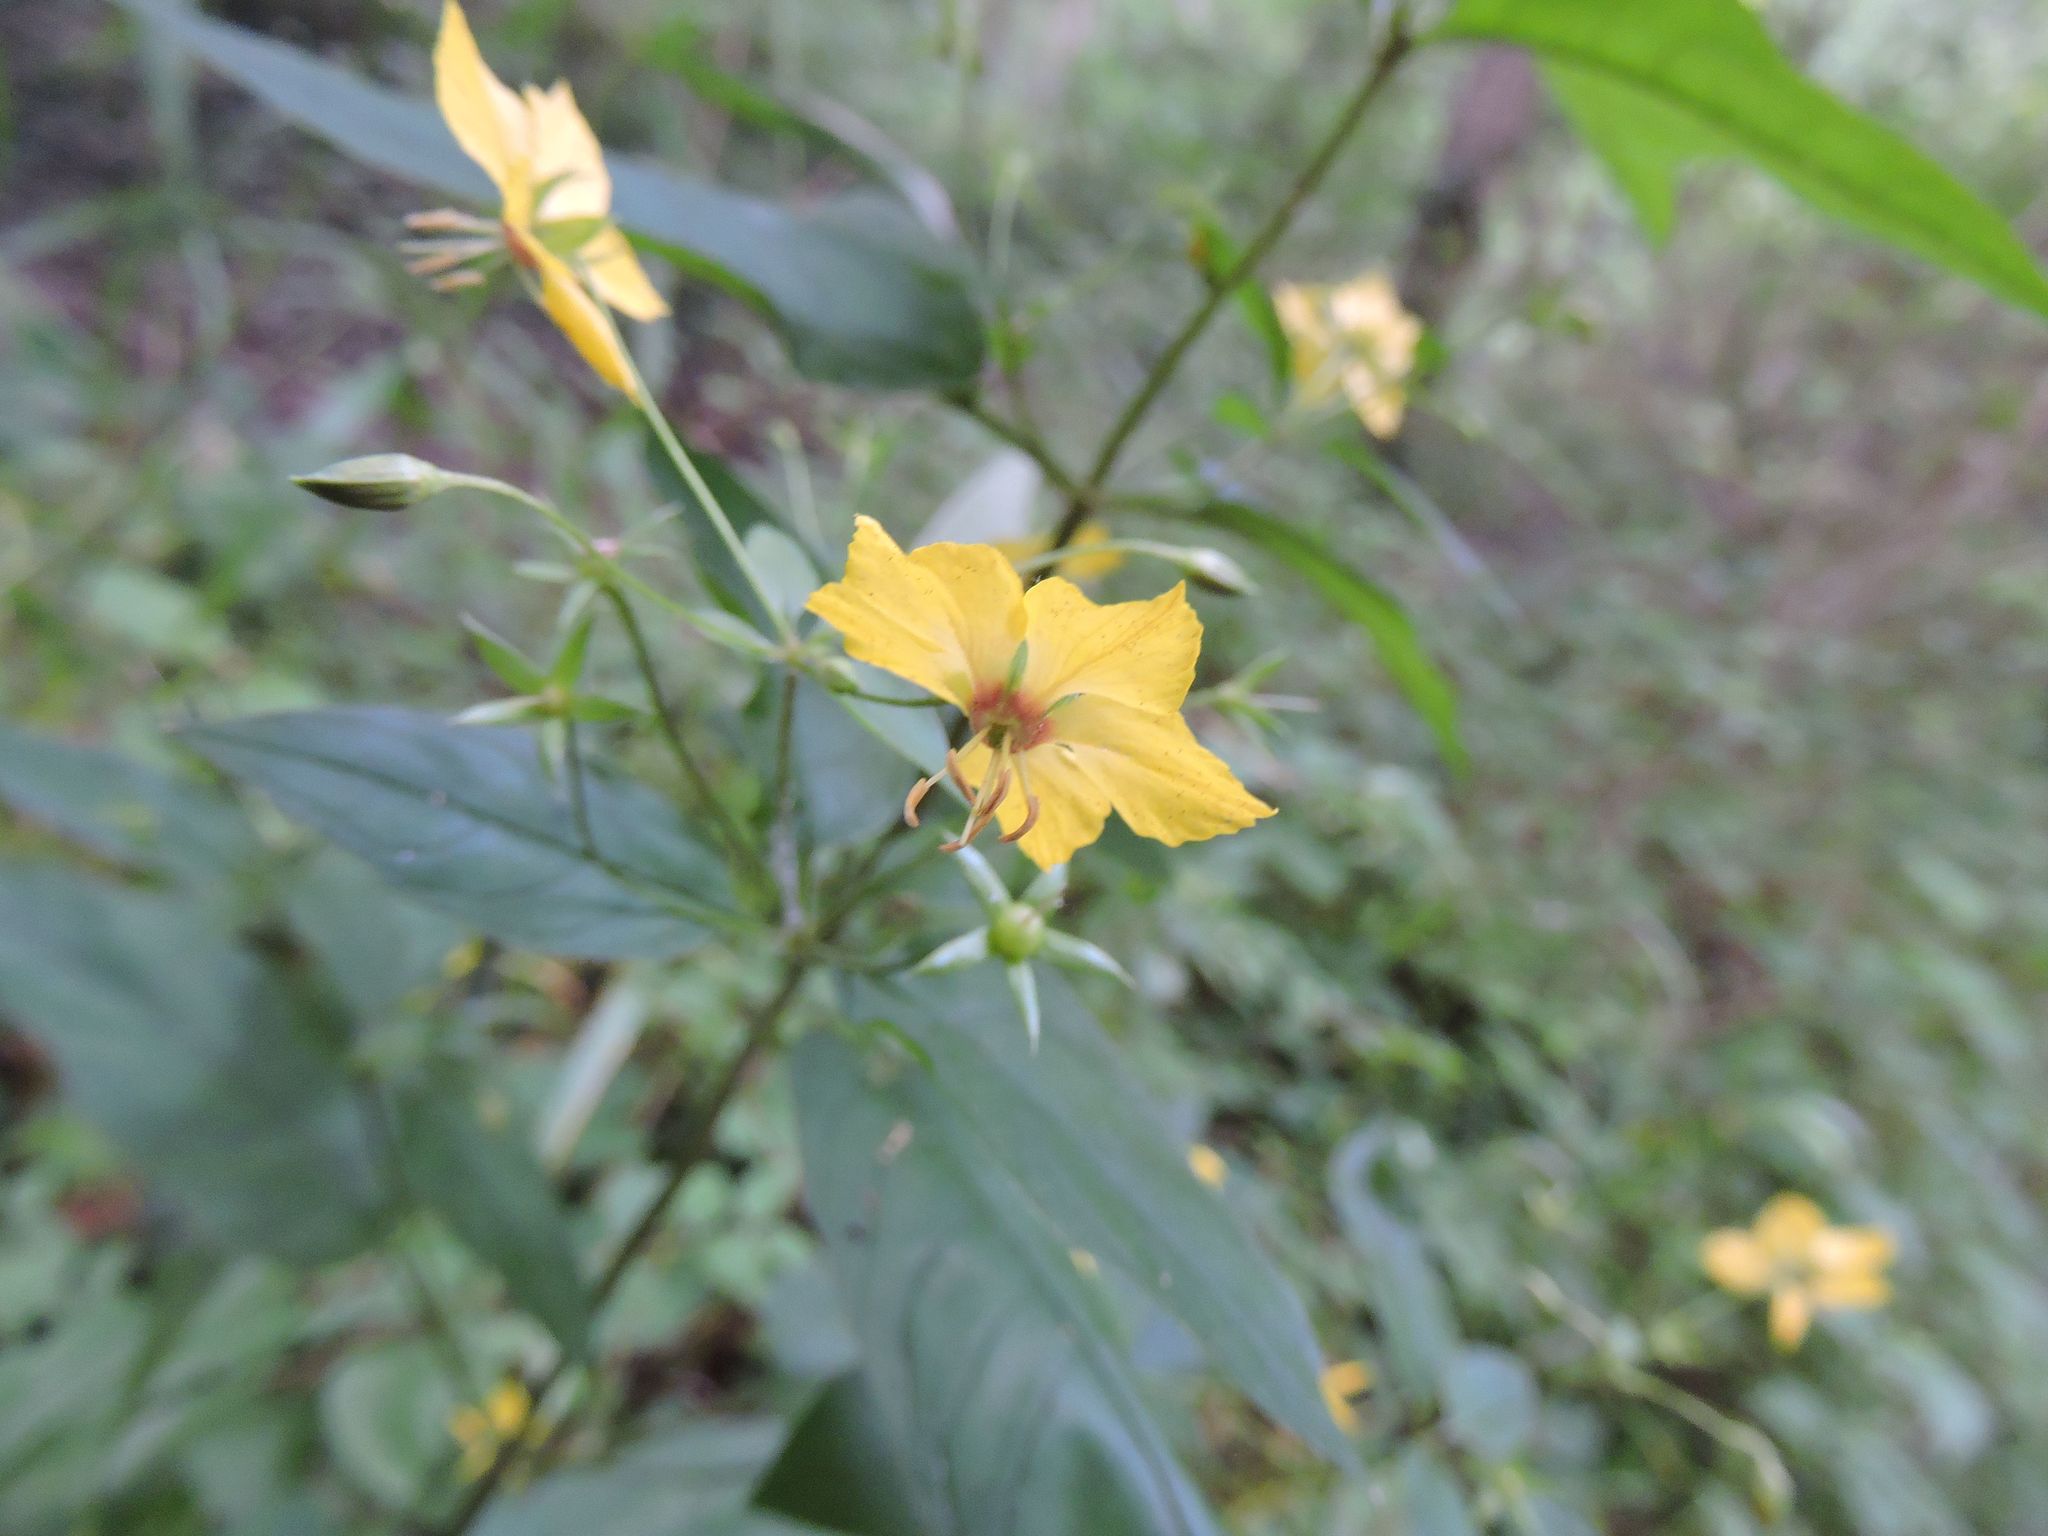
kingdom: Plantae
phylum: Tracheophyta
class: Magnoliopsida
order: Ericales
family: Primulaceae
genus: Lysimachia
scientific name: Lysimachia ciliata
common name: Fringed loosestrife
